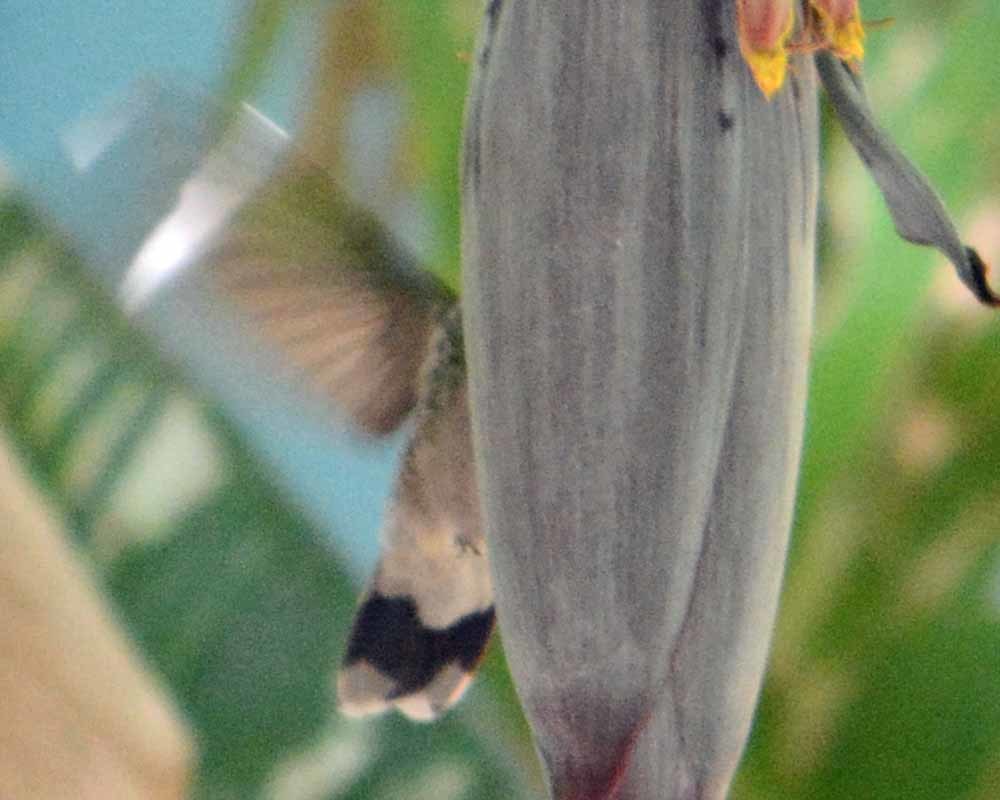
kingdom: Animalia
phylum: Chordata
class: Aves
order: Apodiformes
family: Trochilidae
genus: Cynanthus
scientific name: Cynanthus latirostris
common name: Broad-billed hummingbird
